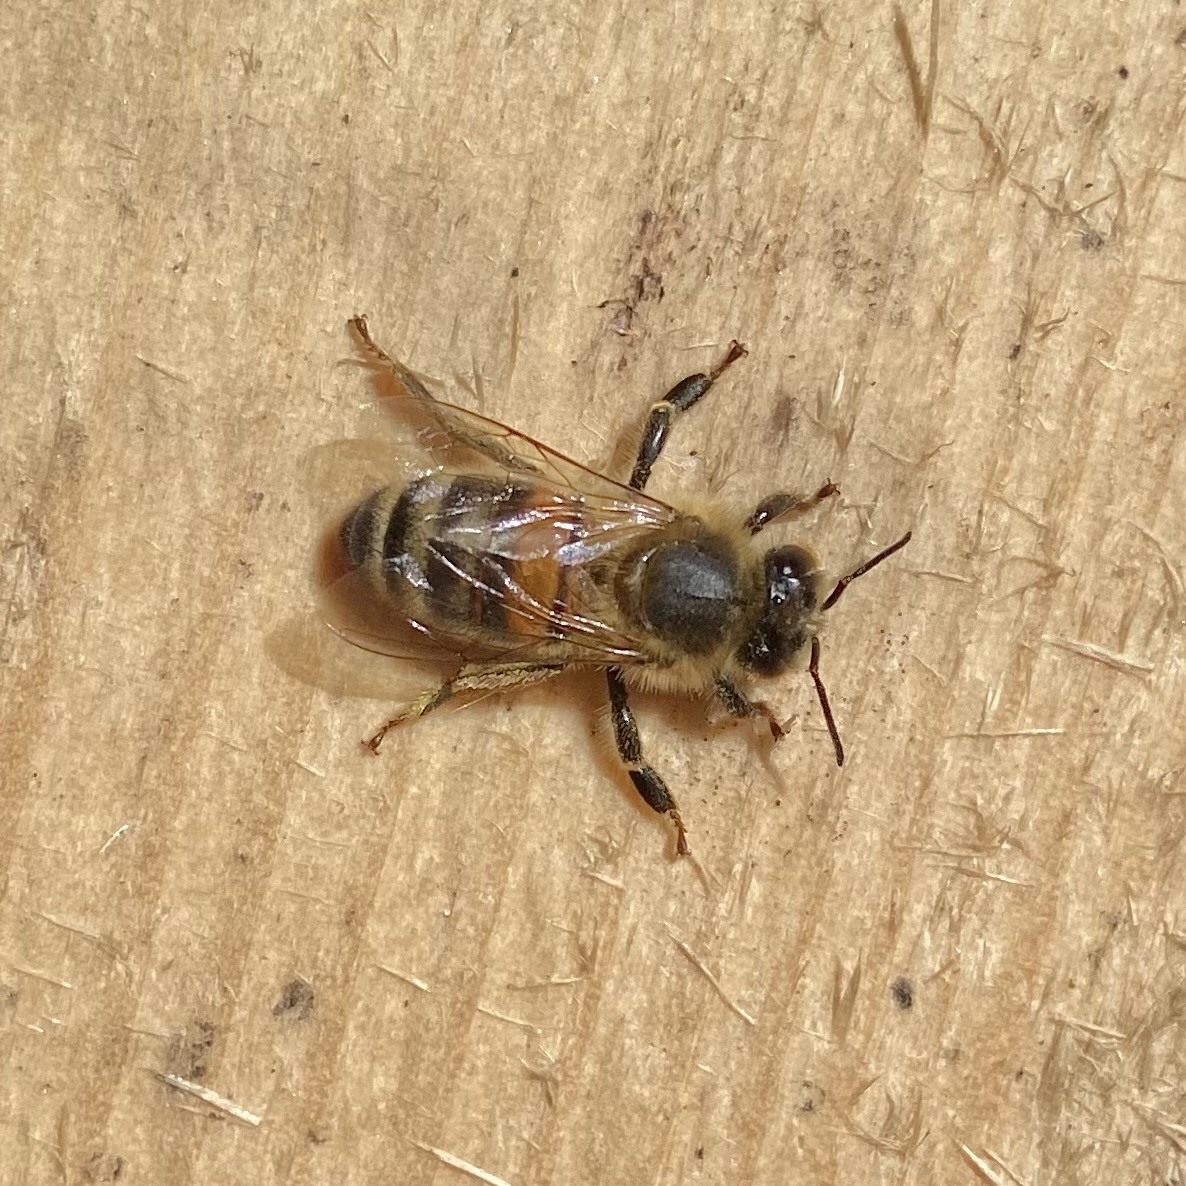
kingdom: Animalia
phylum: Arthropoda
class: Insecta
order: Hymenoptera
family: Apidae
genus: Apis
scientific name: Apis mellifera
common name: Honey bee
